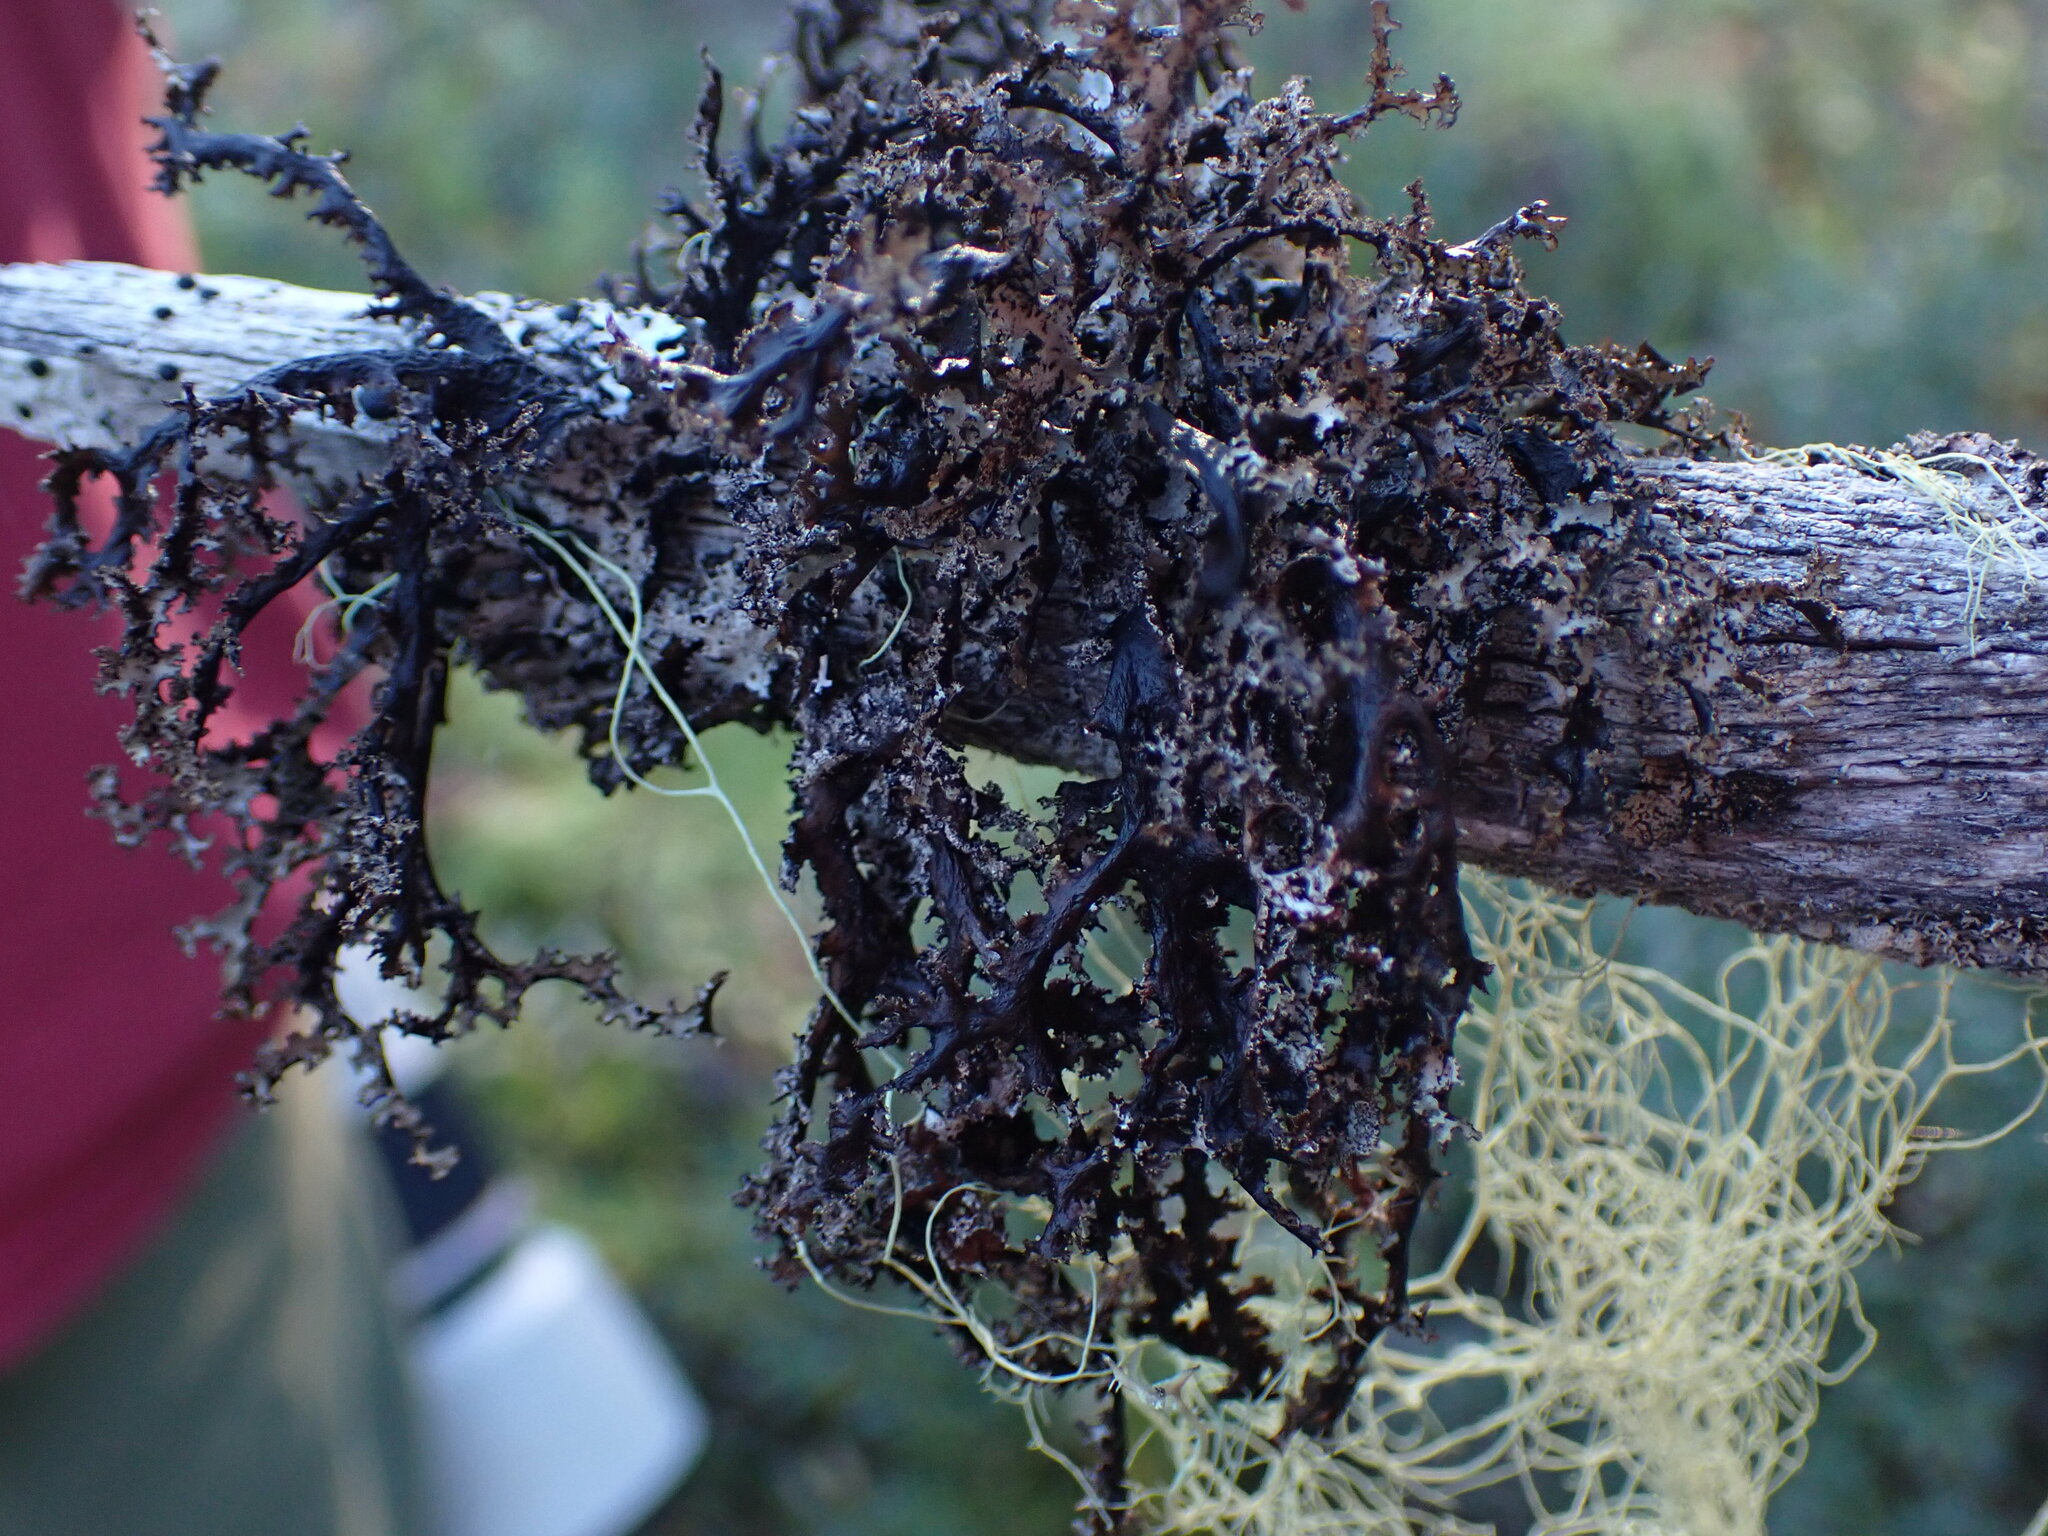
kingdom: Fungi
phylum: Ascomycota
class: Lecanoromycetes
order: Lecanorales
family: Parmeliaceae
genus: Platismatia
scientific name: Platismatia herrei
